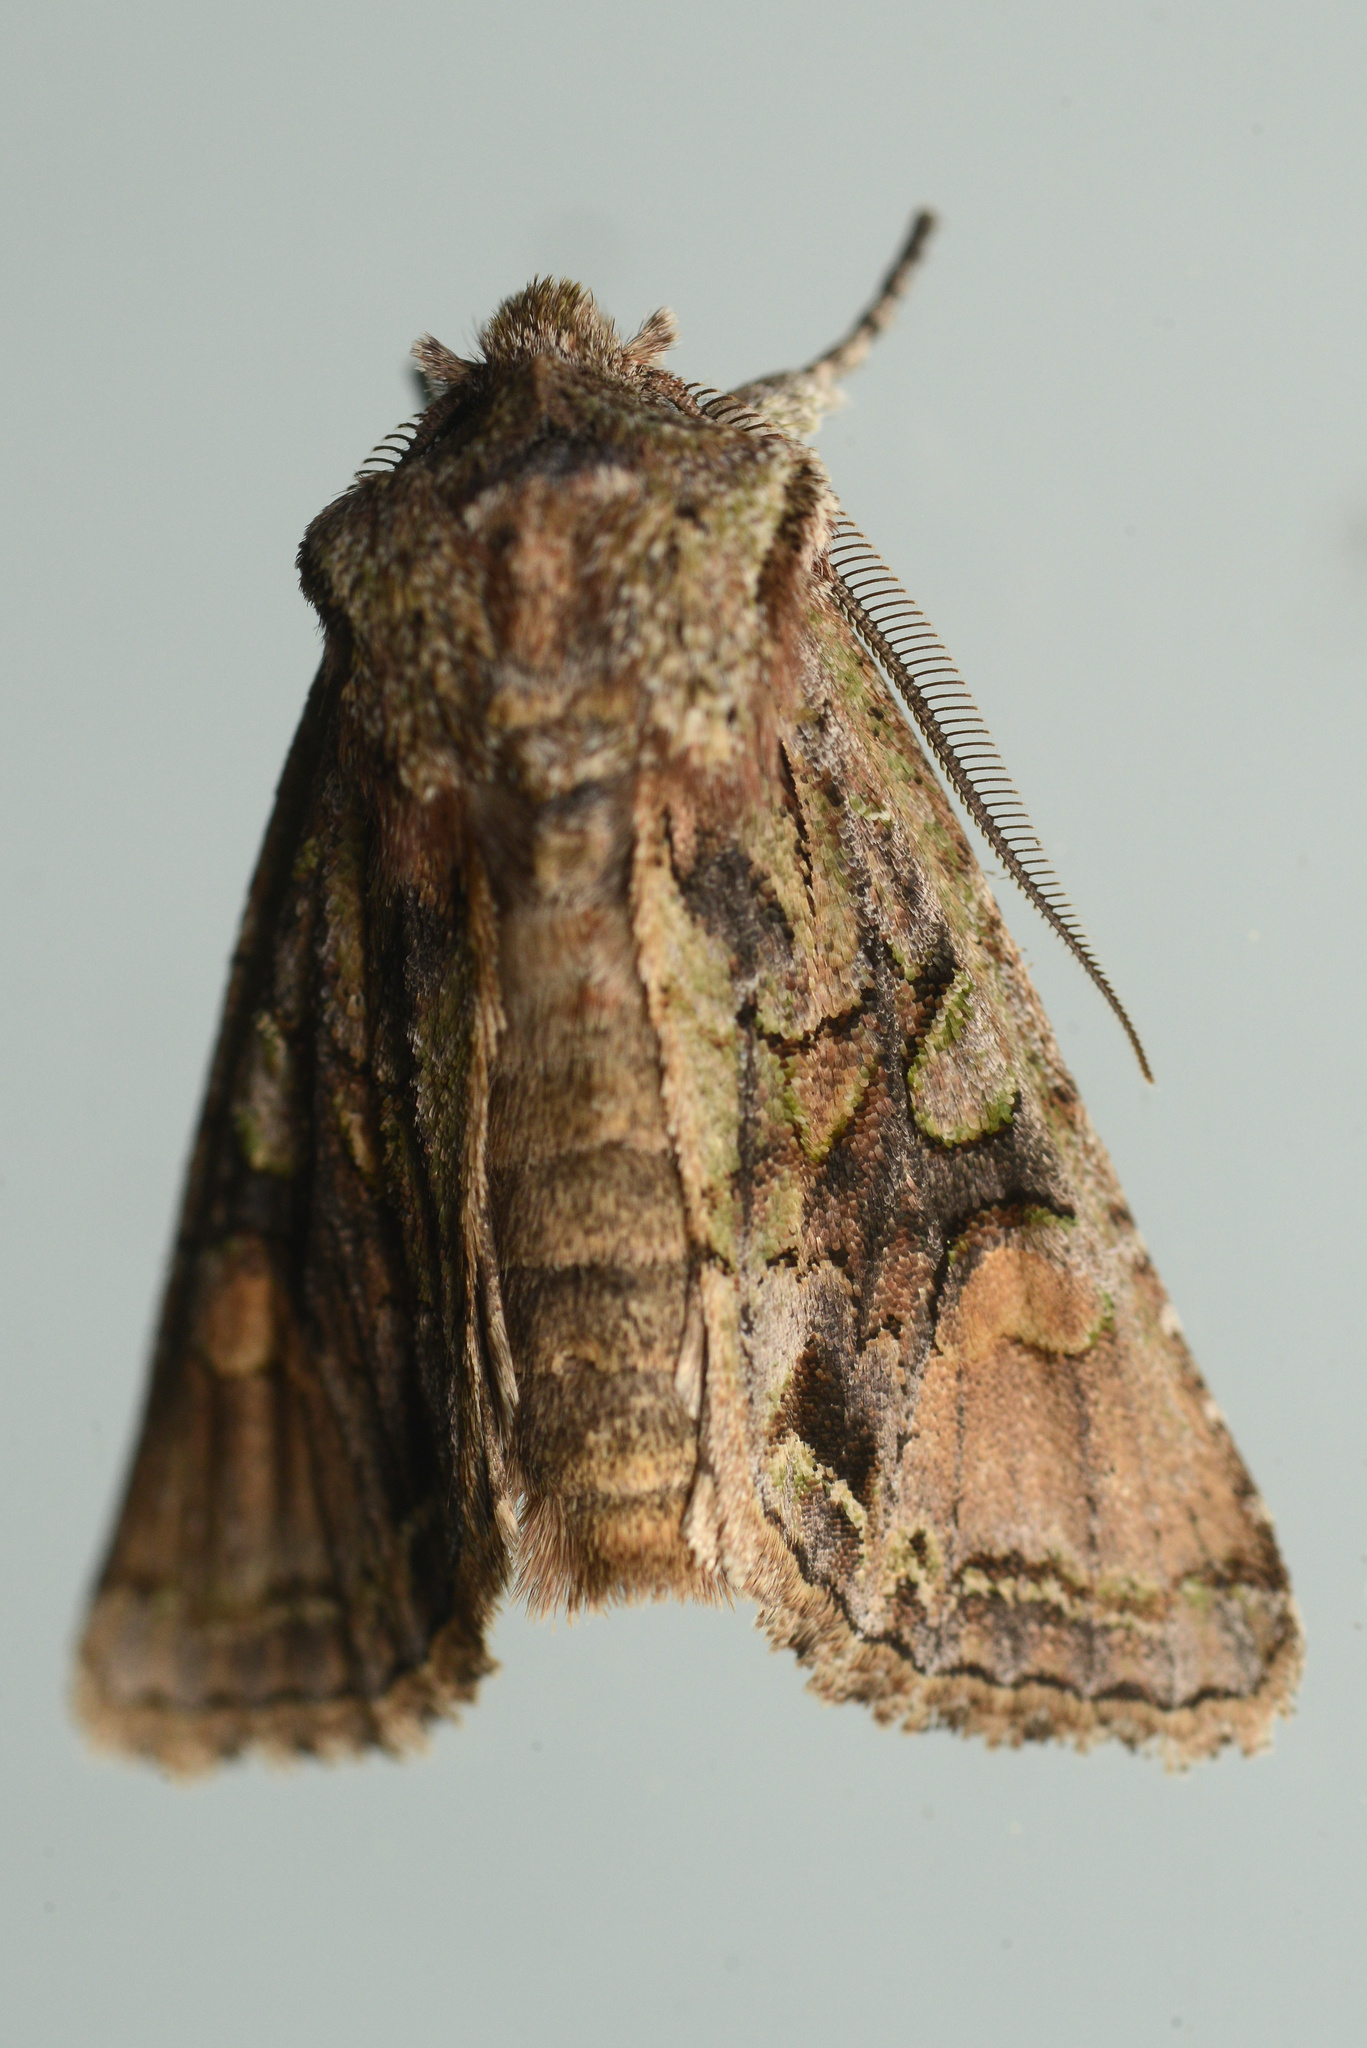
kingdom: Animalia
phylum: Arthropoda
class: Insecta
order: Lepidoptera
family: Noctuidae
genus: Ichneutica
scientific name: Ichneutica
